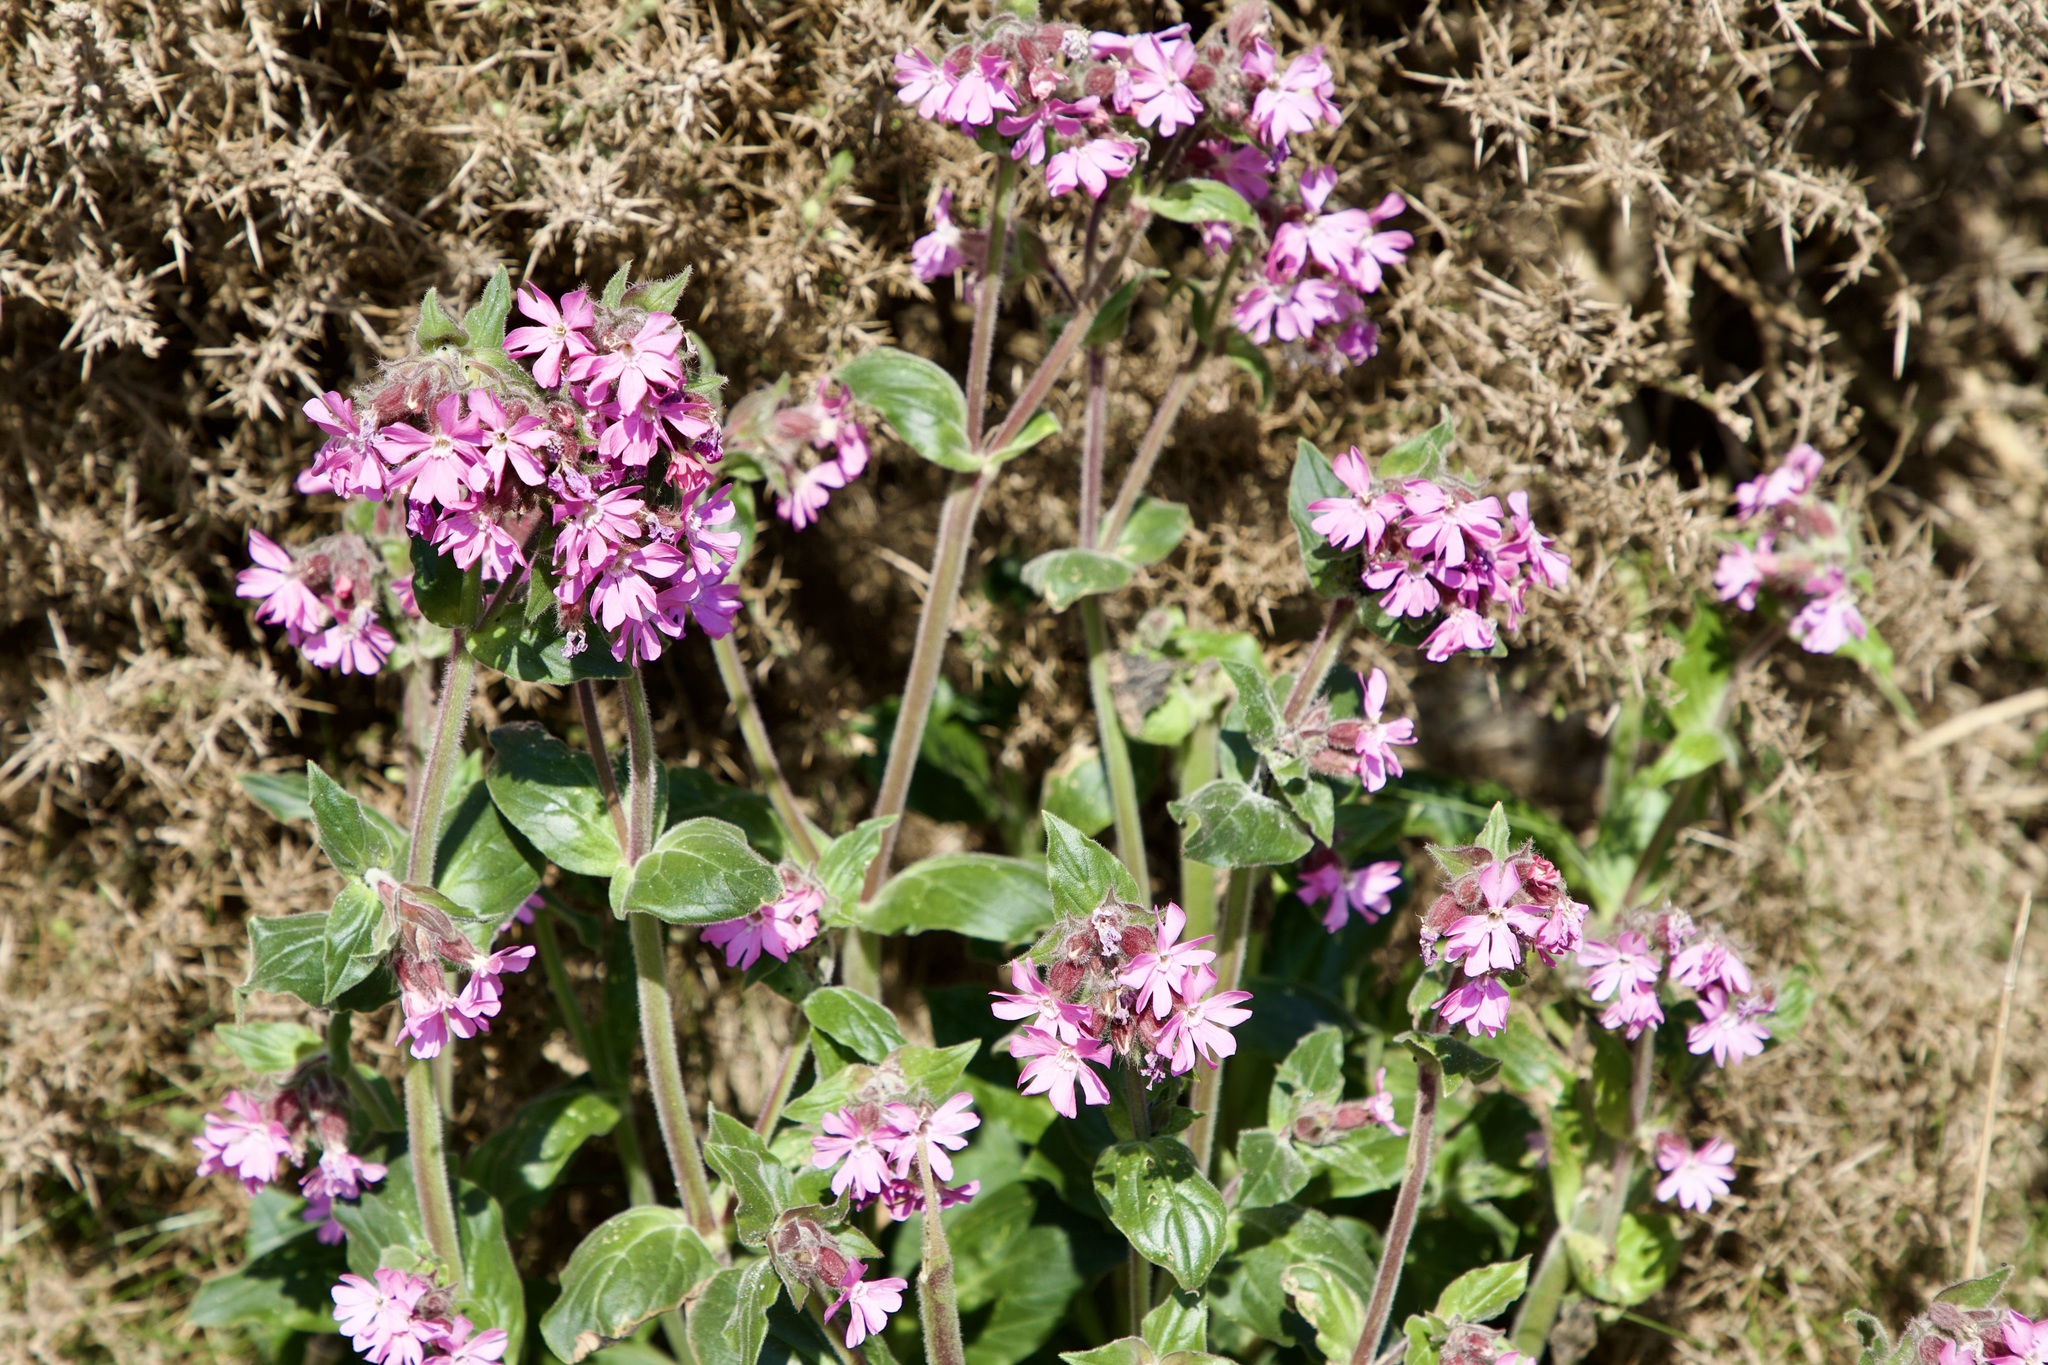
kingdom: Plantae
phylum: Tracheophyta
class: Magnoliopsida
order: Caryophyllales
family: Caryophyllaceae
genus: Silene
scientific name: Silene dioica
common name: Red campion
